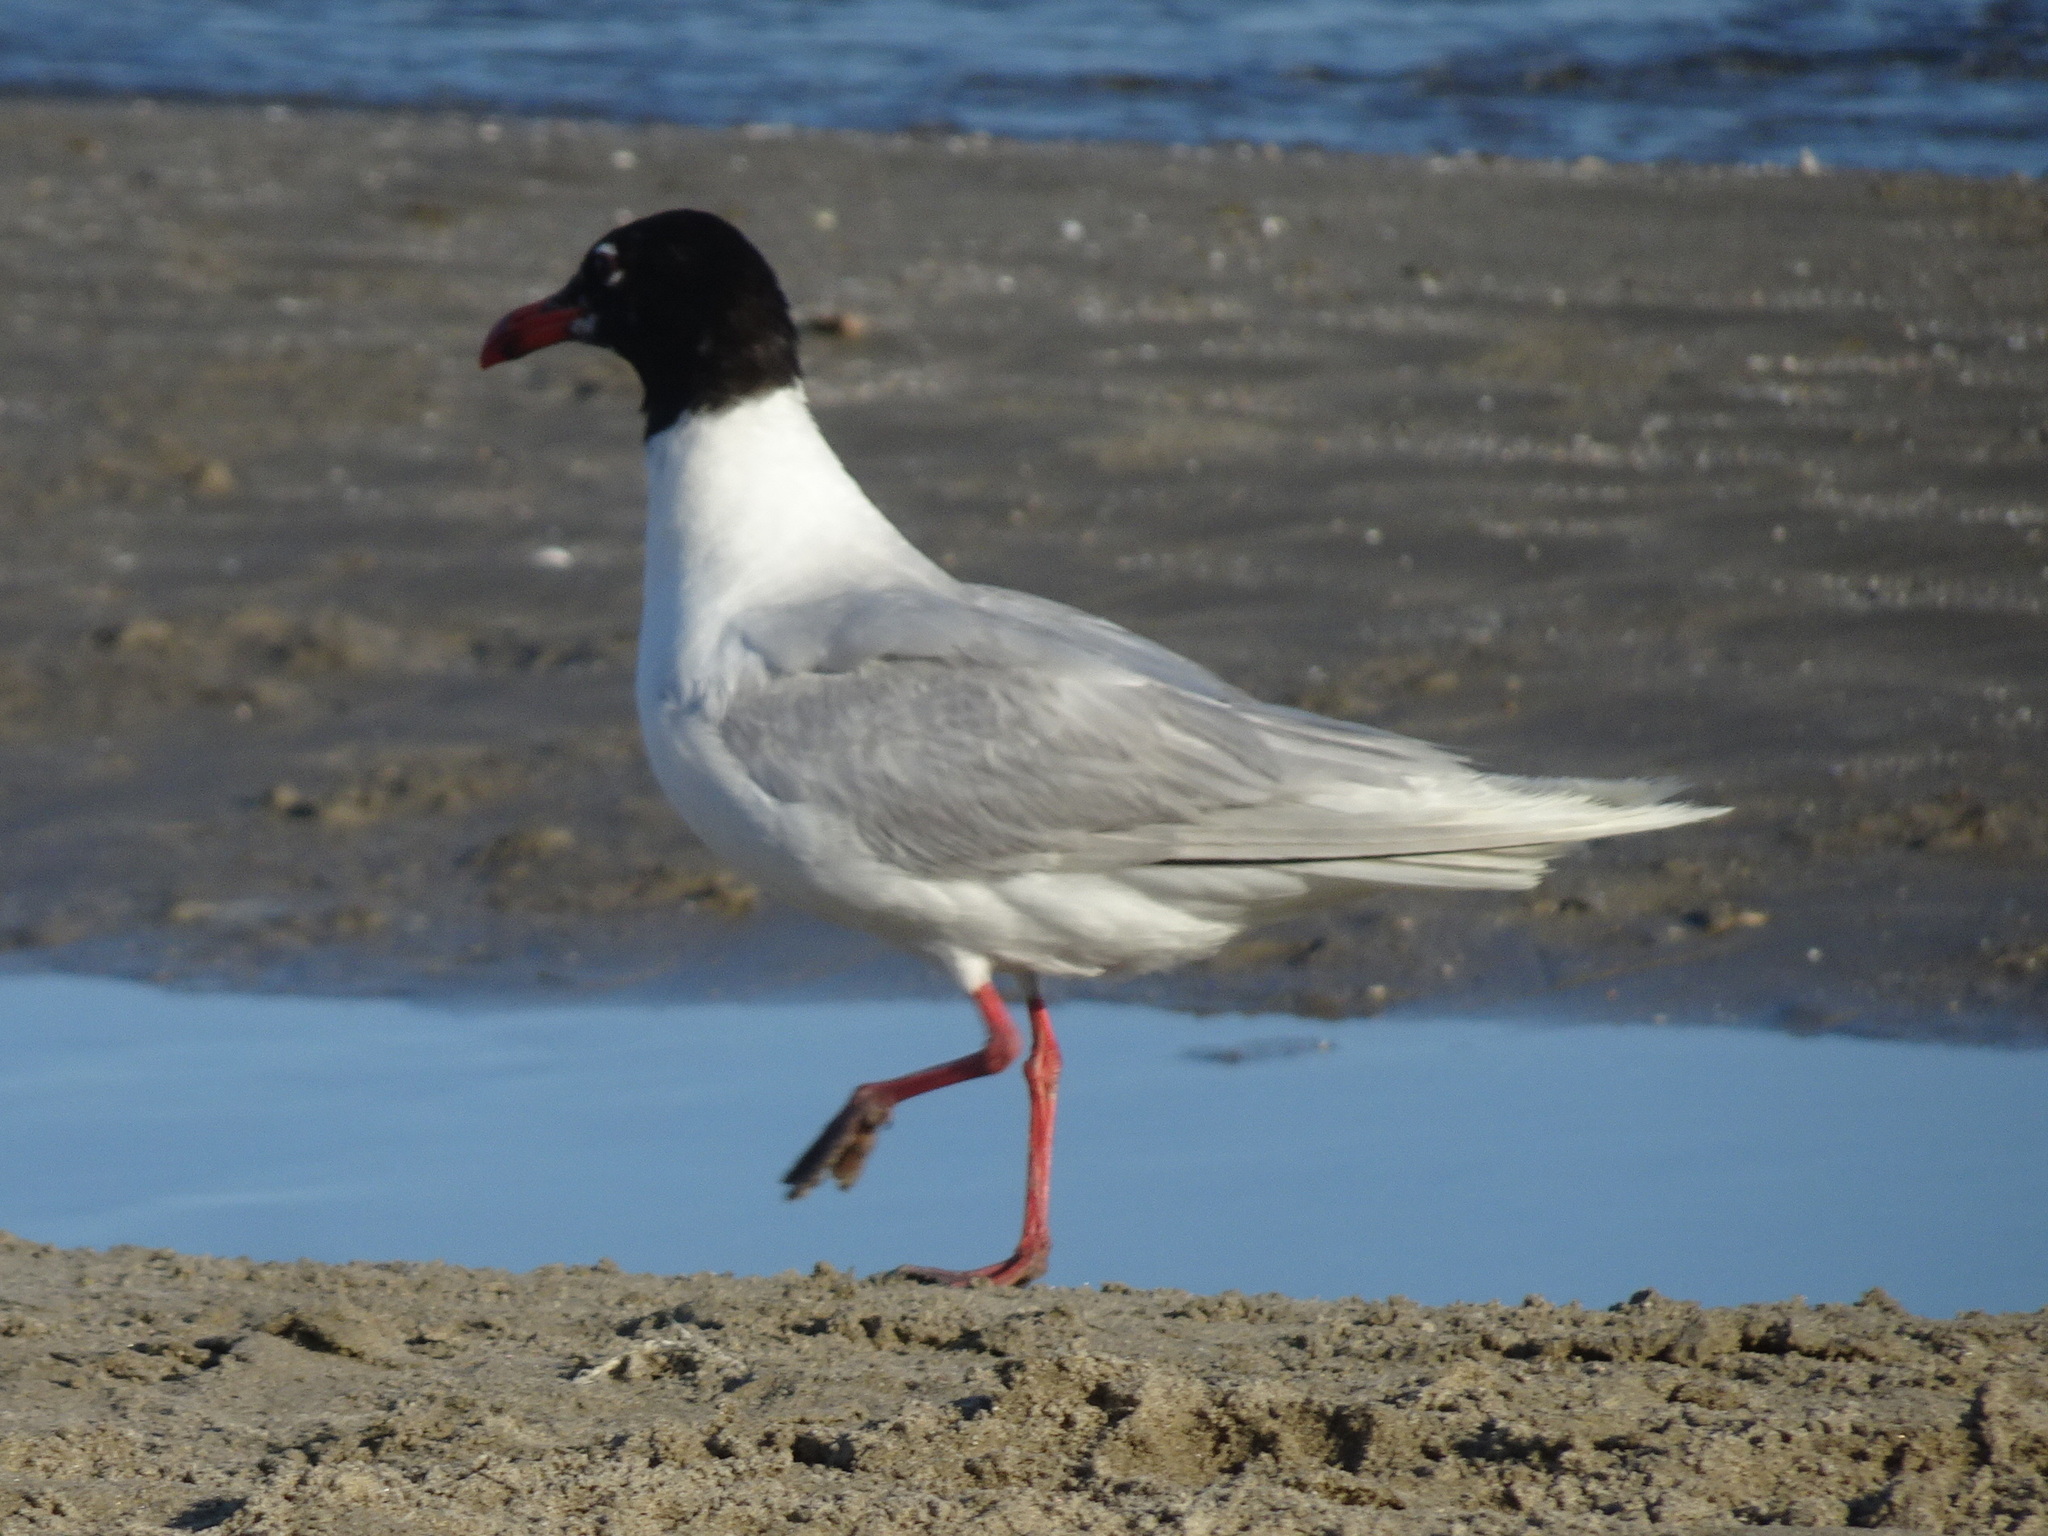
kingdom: Animalia
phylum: Chordata
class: Aves
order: Charadriiformes
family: Laridae
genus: Ichthyaetus
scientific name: Ichthyaetus melanocephalus
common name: Mediterranean gull
